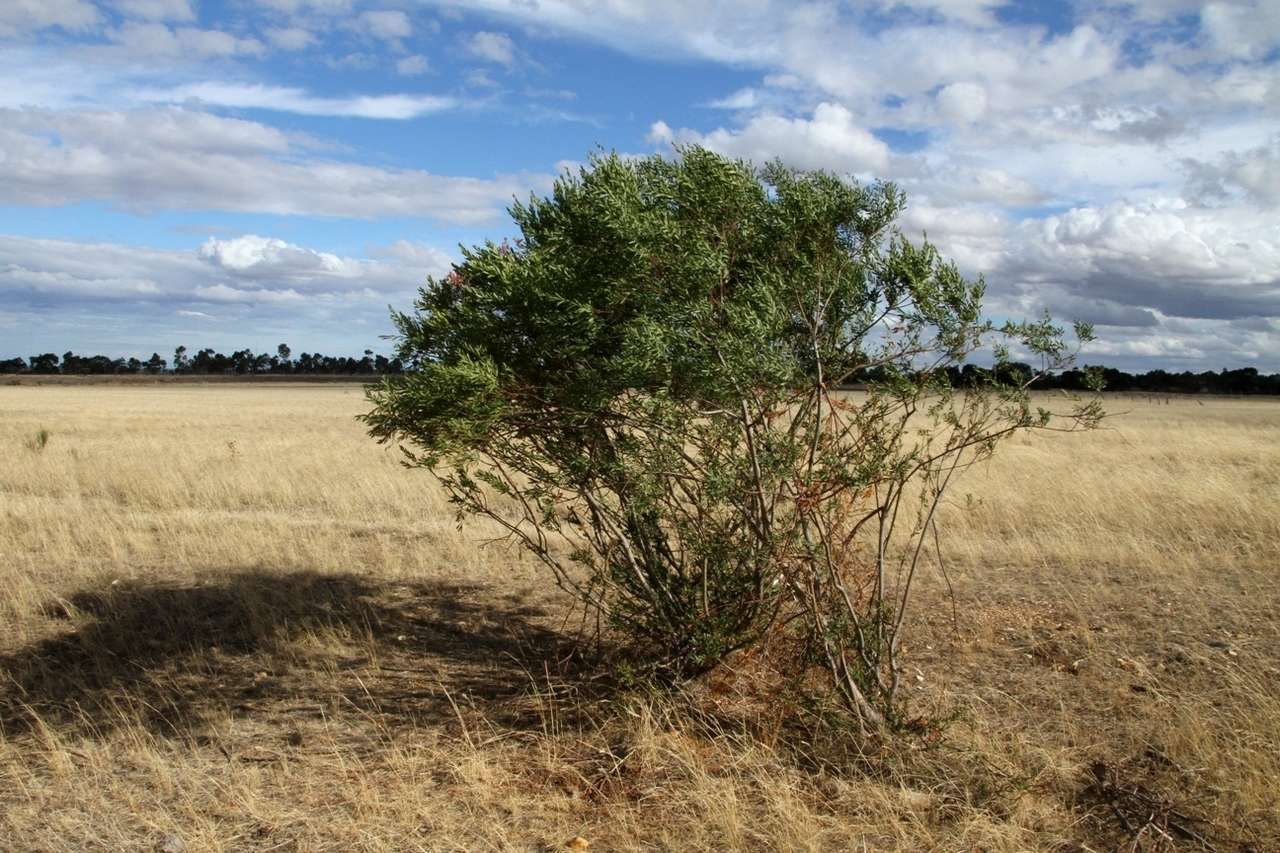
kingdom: Plantae
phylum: Tracheophyta
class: Magnoliopsida
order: Fabales
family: Fabaceae
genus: Acacia
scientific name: Acacia rostriformis
